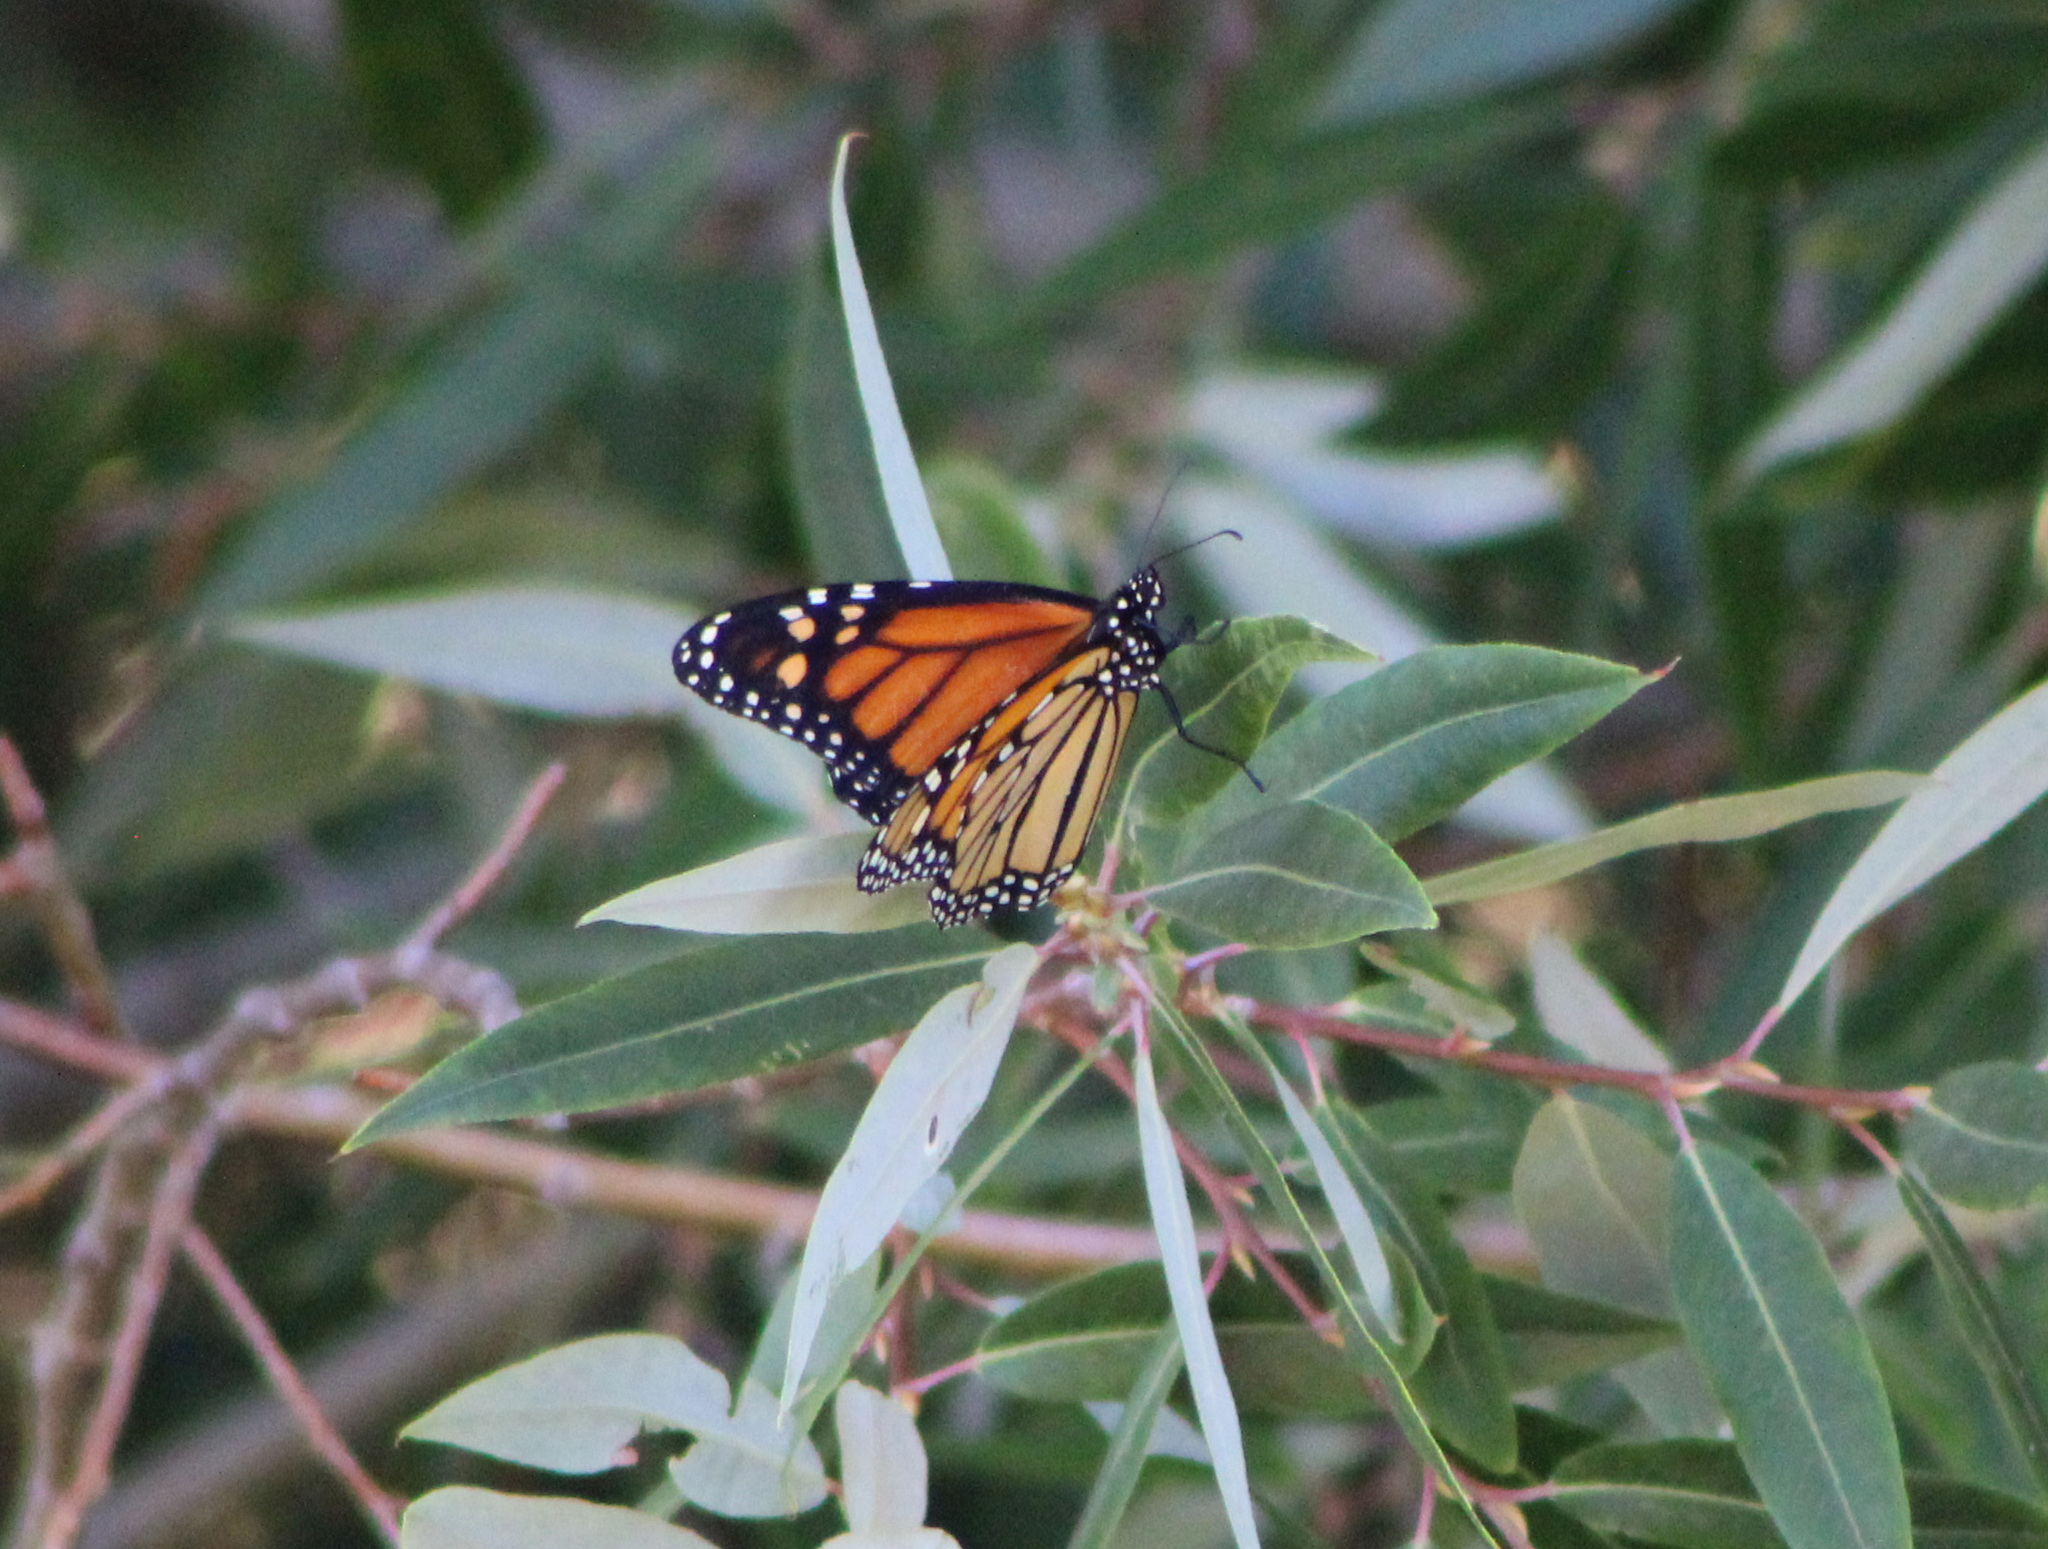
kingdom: Animalia
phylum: Arthropoda
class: Insecta
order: Lepidoptera
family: Nymphalidae
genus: Danaus
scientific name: Danaus plexippus
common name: Monarch
